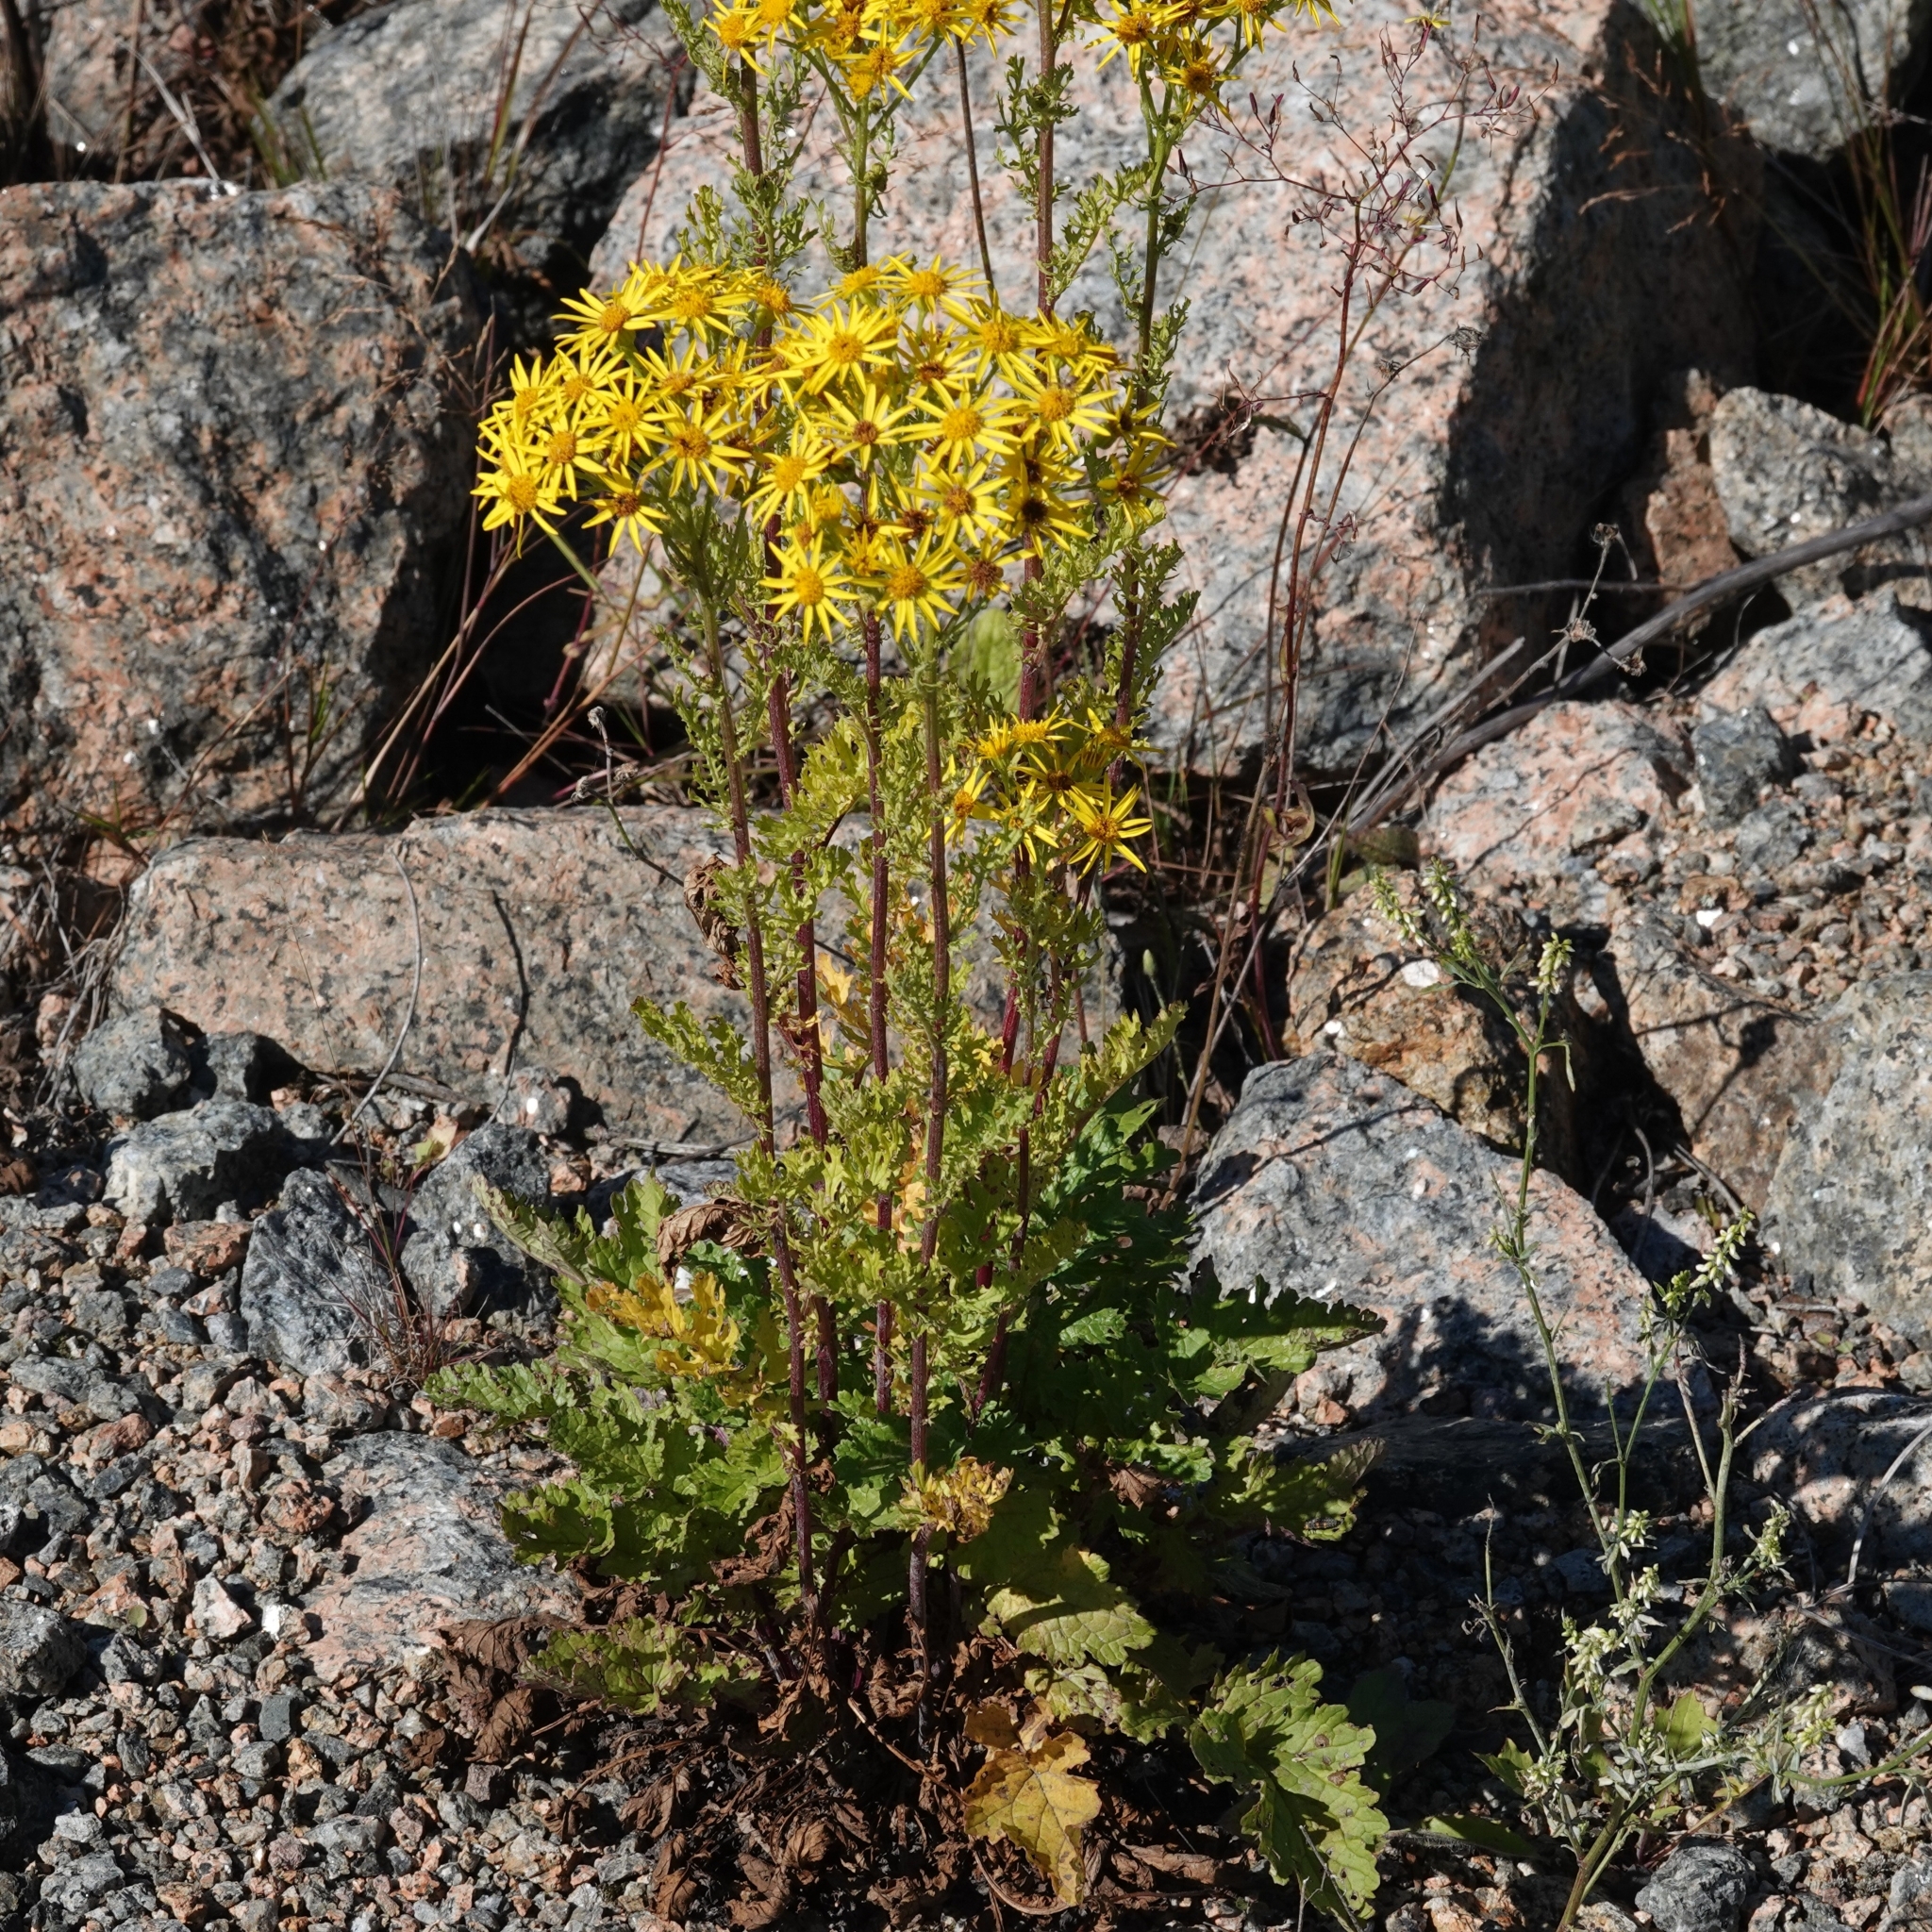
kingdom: Plantae
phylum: Tracheophyta
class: Magnoliopsida
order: Asterales
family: Asteraceae
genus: Jacobaea
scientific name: Jacobaea vulgaris
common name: Stinking willie
